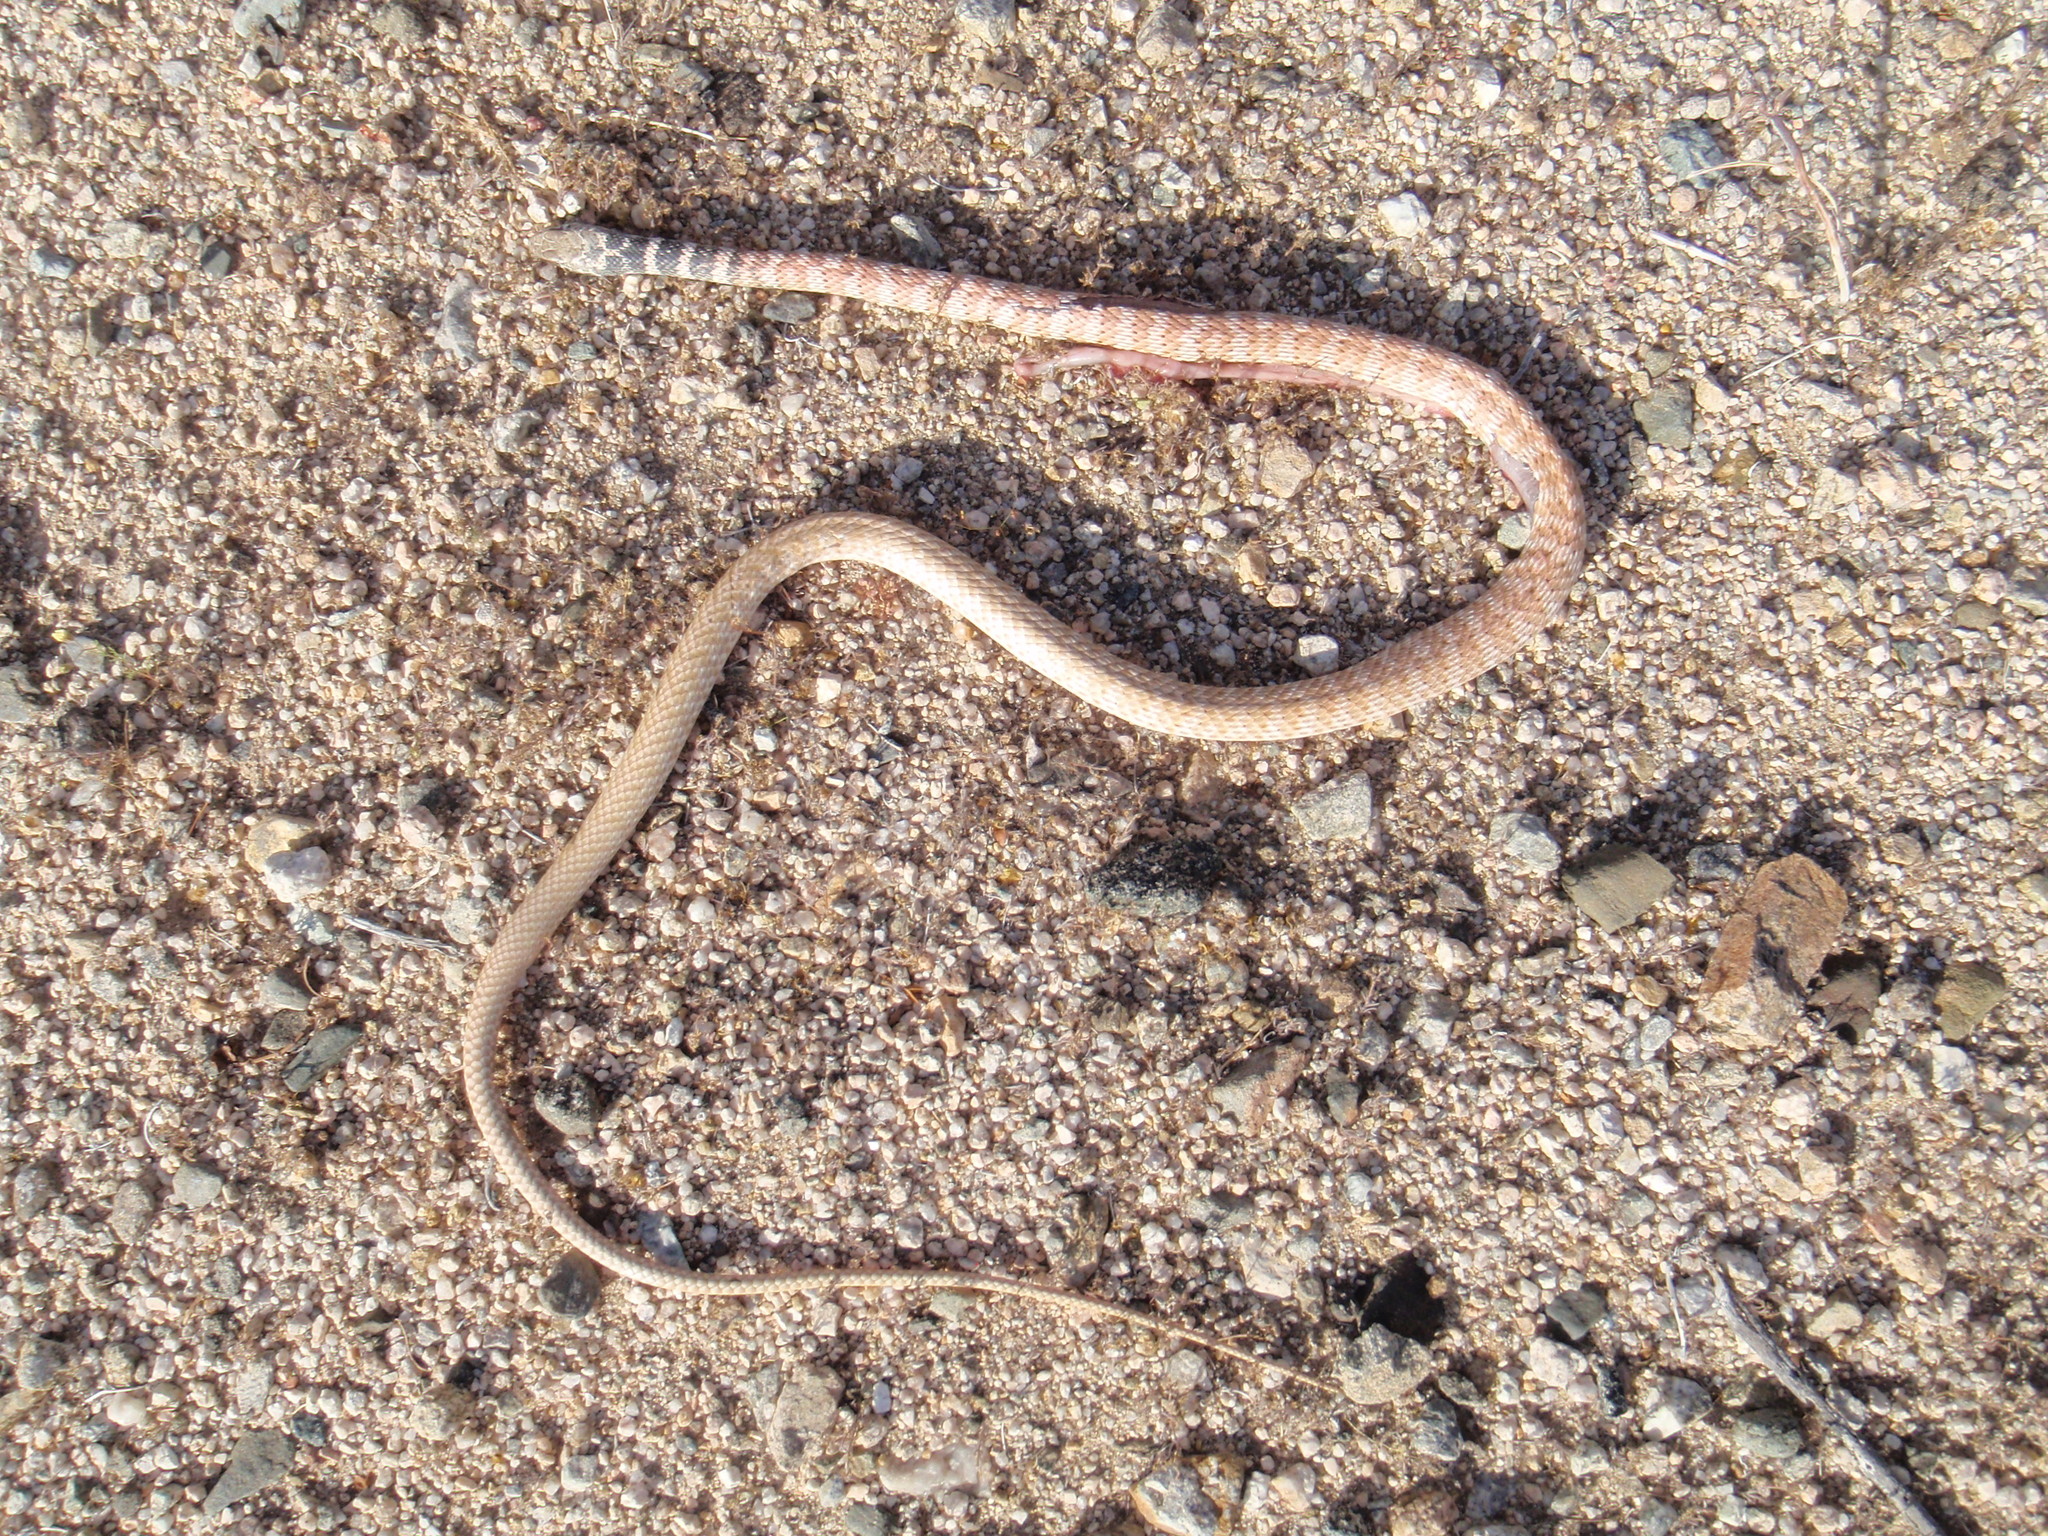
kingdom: Animalia
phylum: Chordata
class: Squamata
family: Colubridae
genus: Masticophis
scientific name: Masticophis flagellum
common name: Coachwhip
